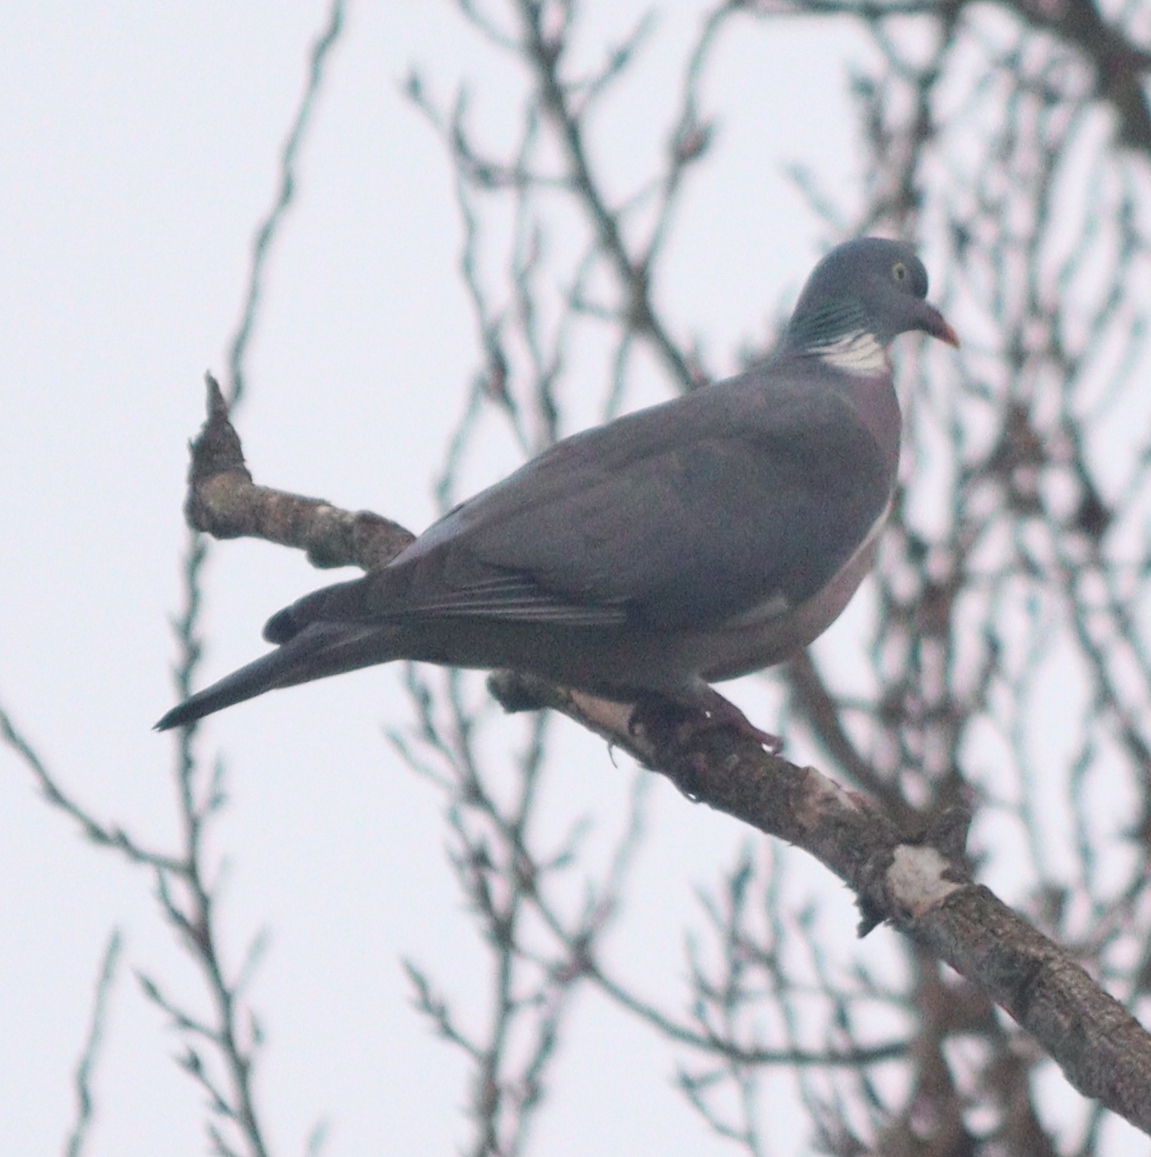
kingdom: Animalia
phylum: Chordata
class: Aves
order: Columbiformes
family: Columbidae
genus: Columba
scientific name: Columba palumbus
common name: Common wood pigeon
